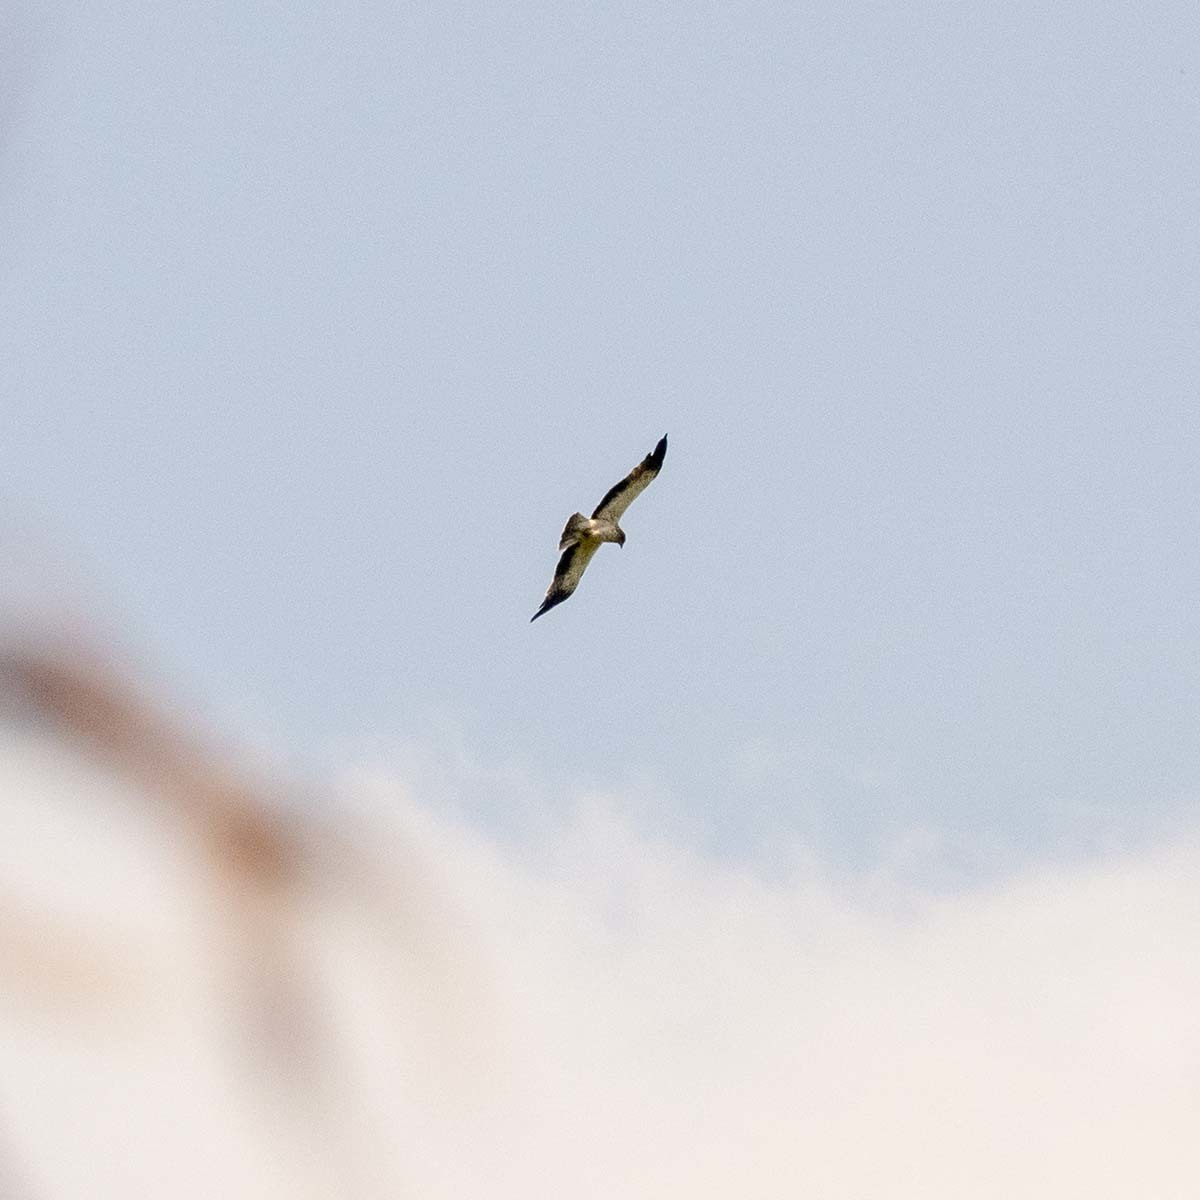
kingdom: Animalia
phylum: Chordata
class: Aves
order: Accipitriformes
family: Accipitridae
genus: Hieraaetus
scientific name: Hieraaetus pennatus
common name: Booted eagle
